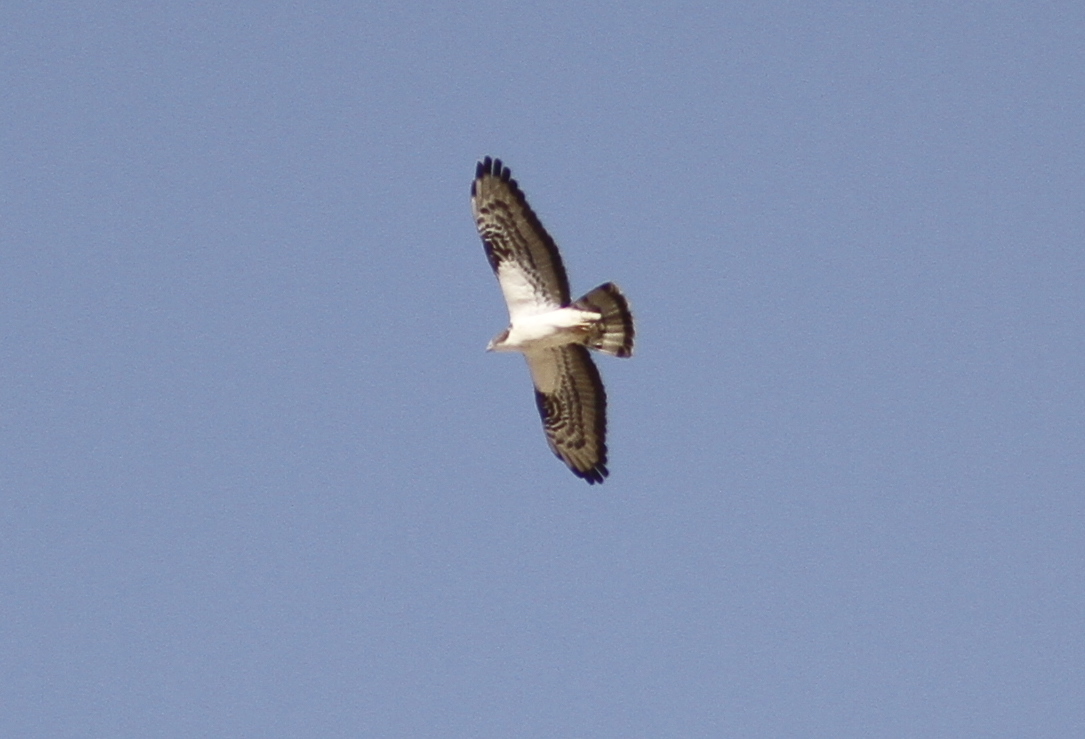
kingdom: Animalia
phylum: Chordata
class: Aves
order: Accipitriformes
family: Accipitridae
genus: Pernis
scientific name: Pernis apivorus
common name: European honey buzzard
